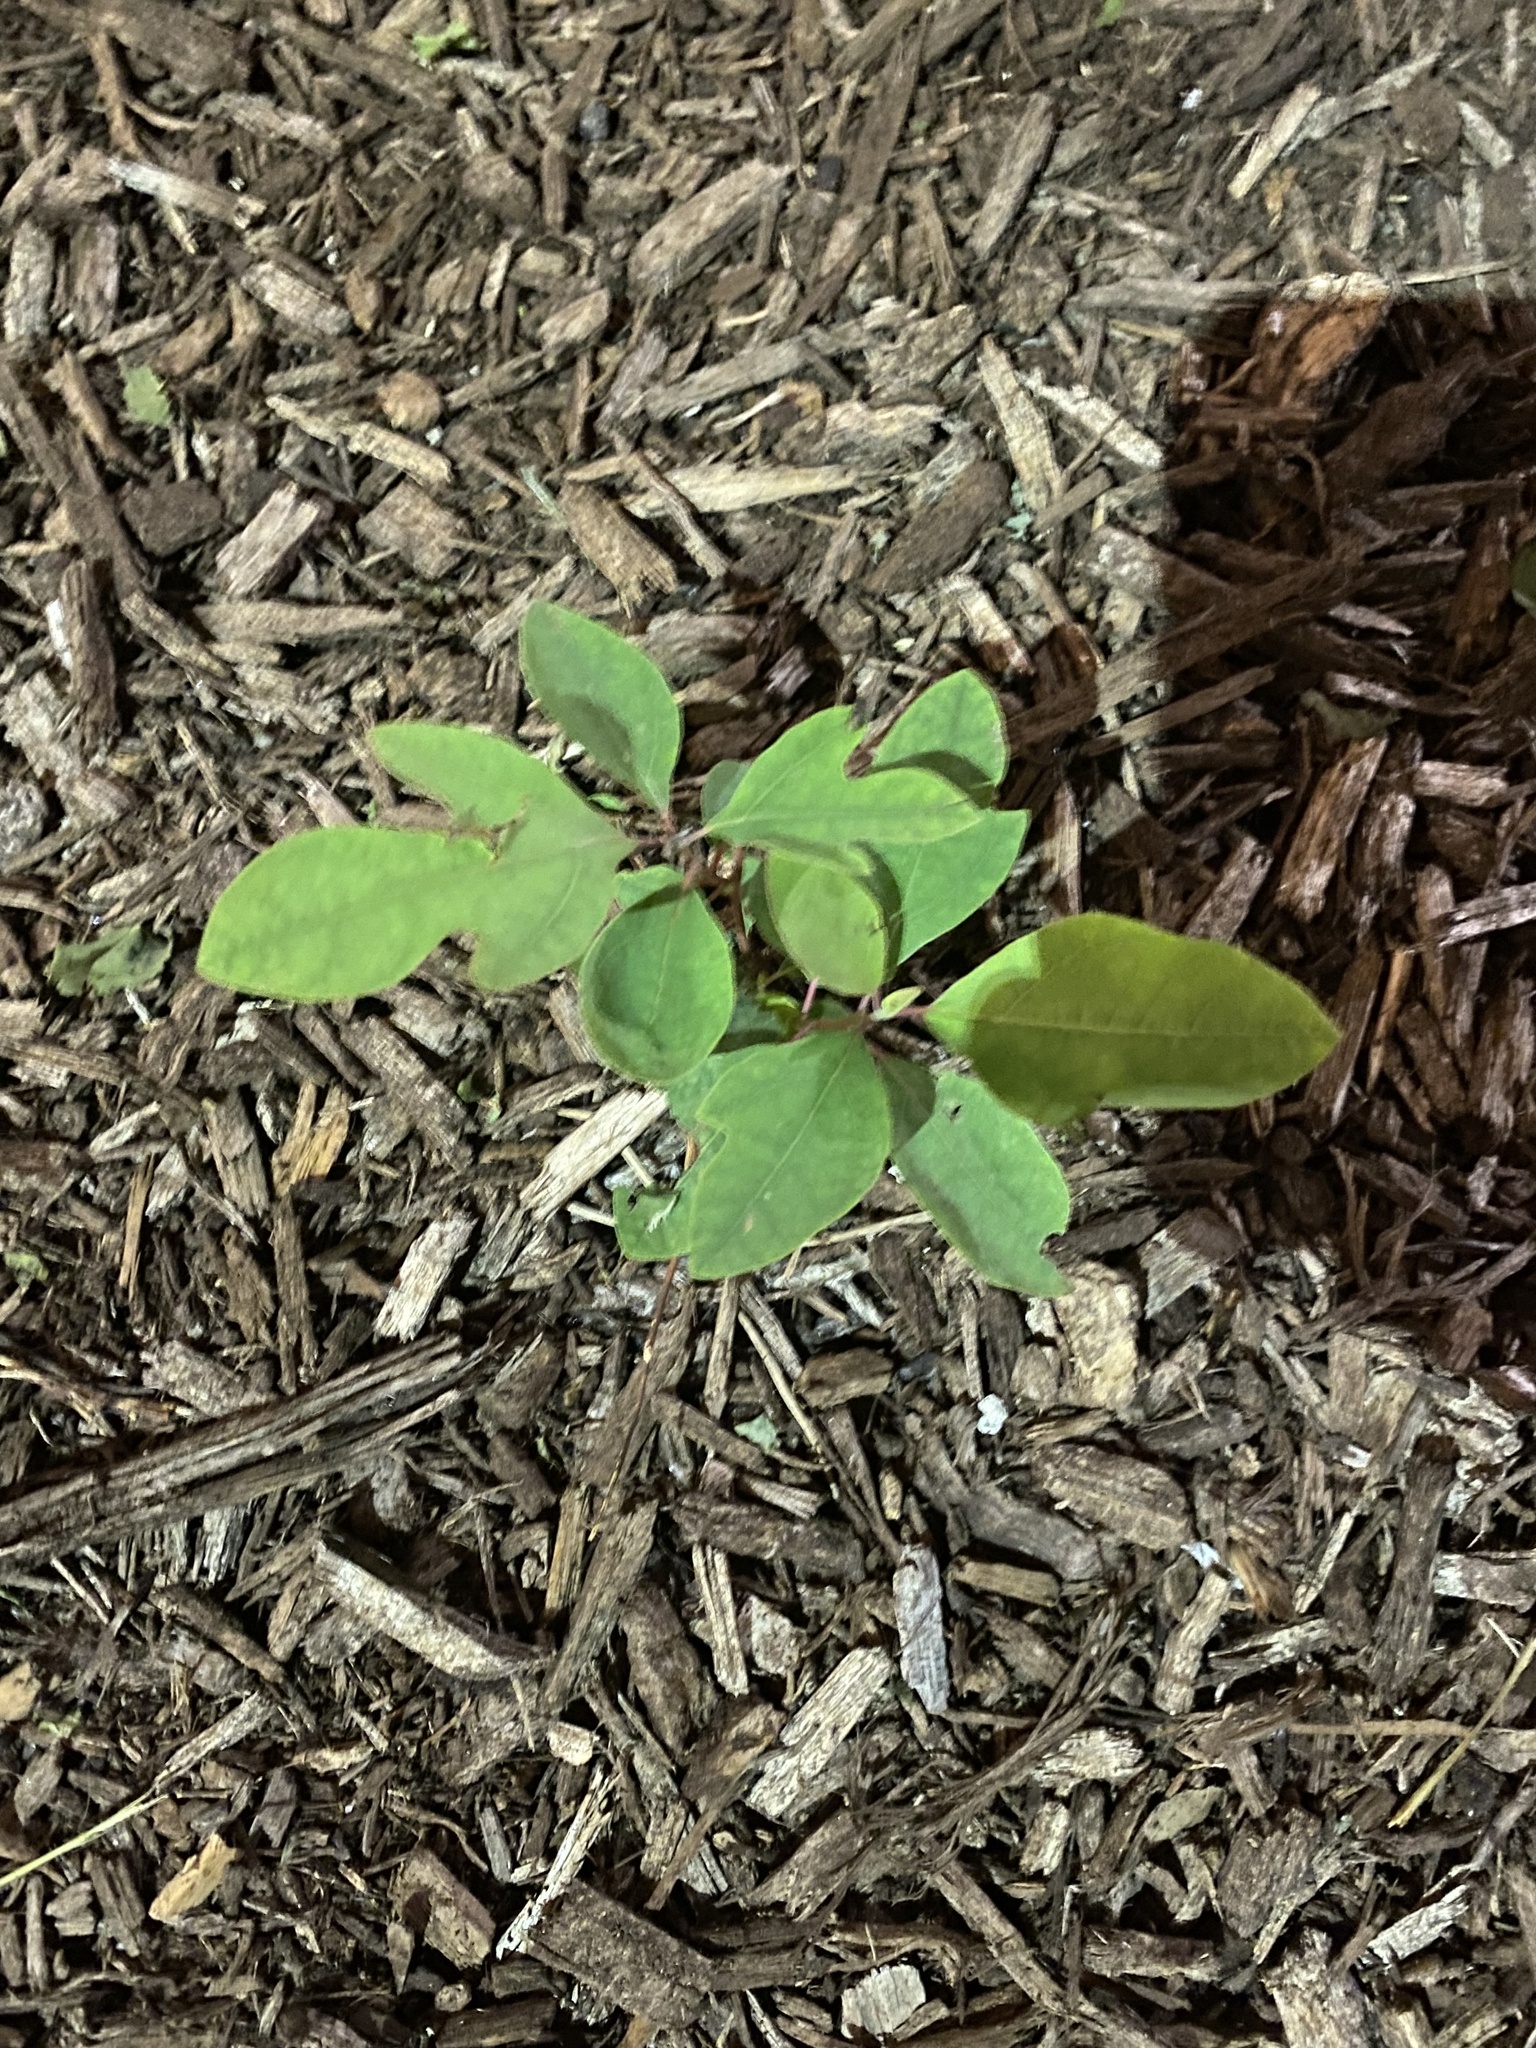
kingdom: Plantae
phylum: Tracheophyta
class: Magnoliopsida
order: Laurales
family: Lauraceae
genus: Sassafras
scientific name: Sassafras albidum
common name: Sassafras
